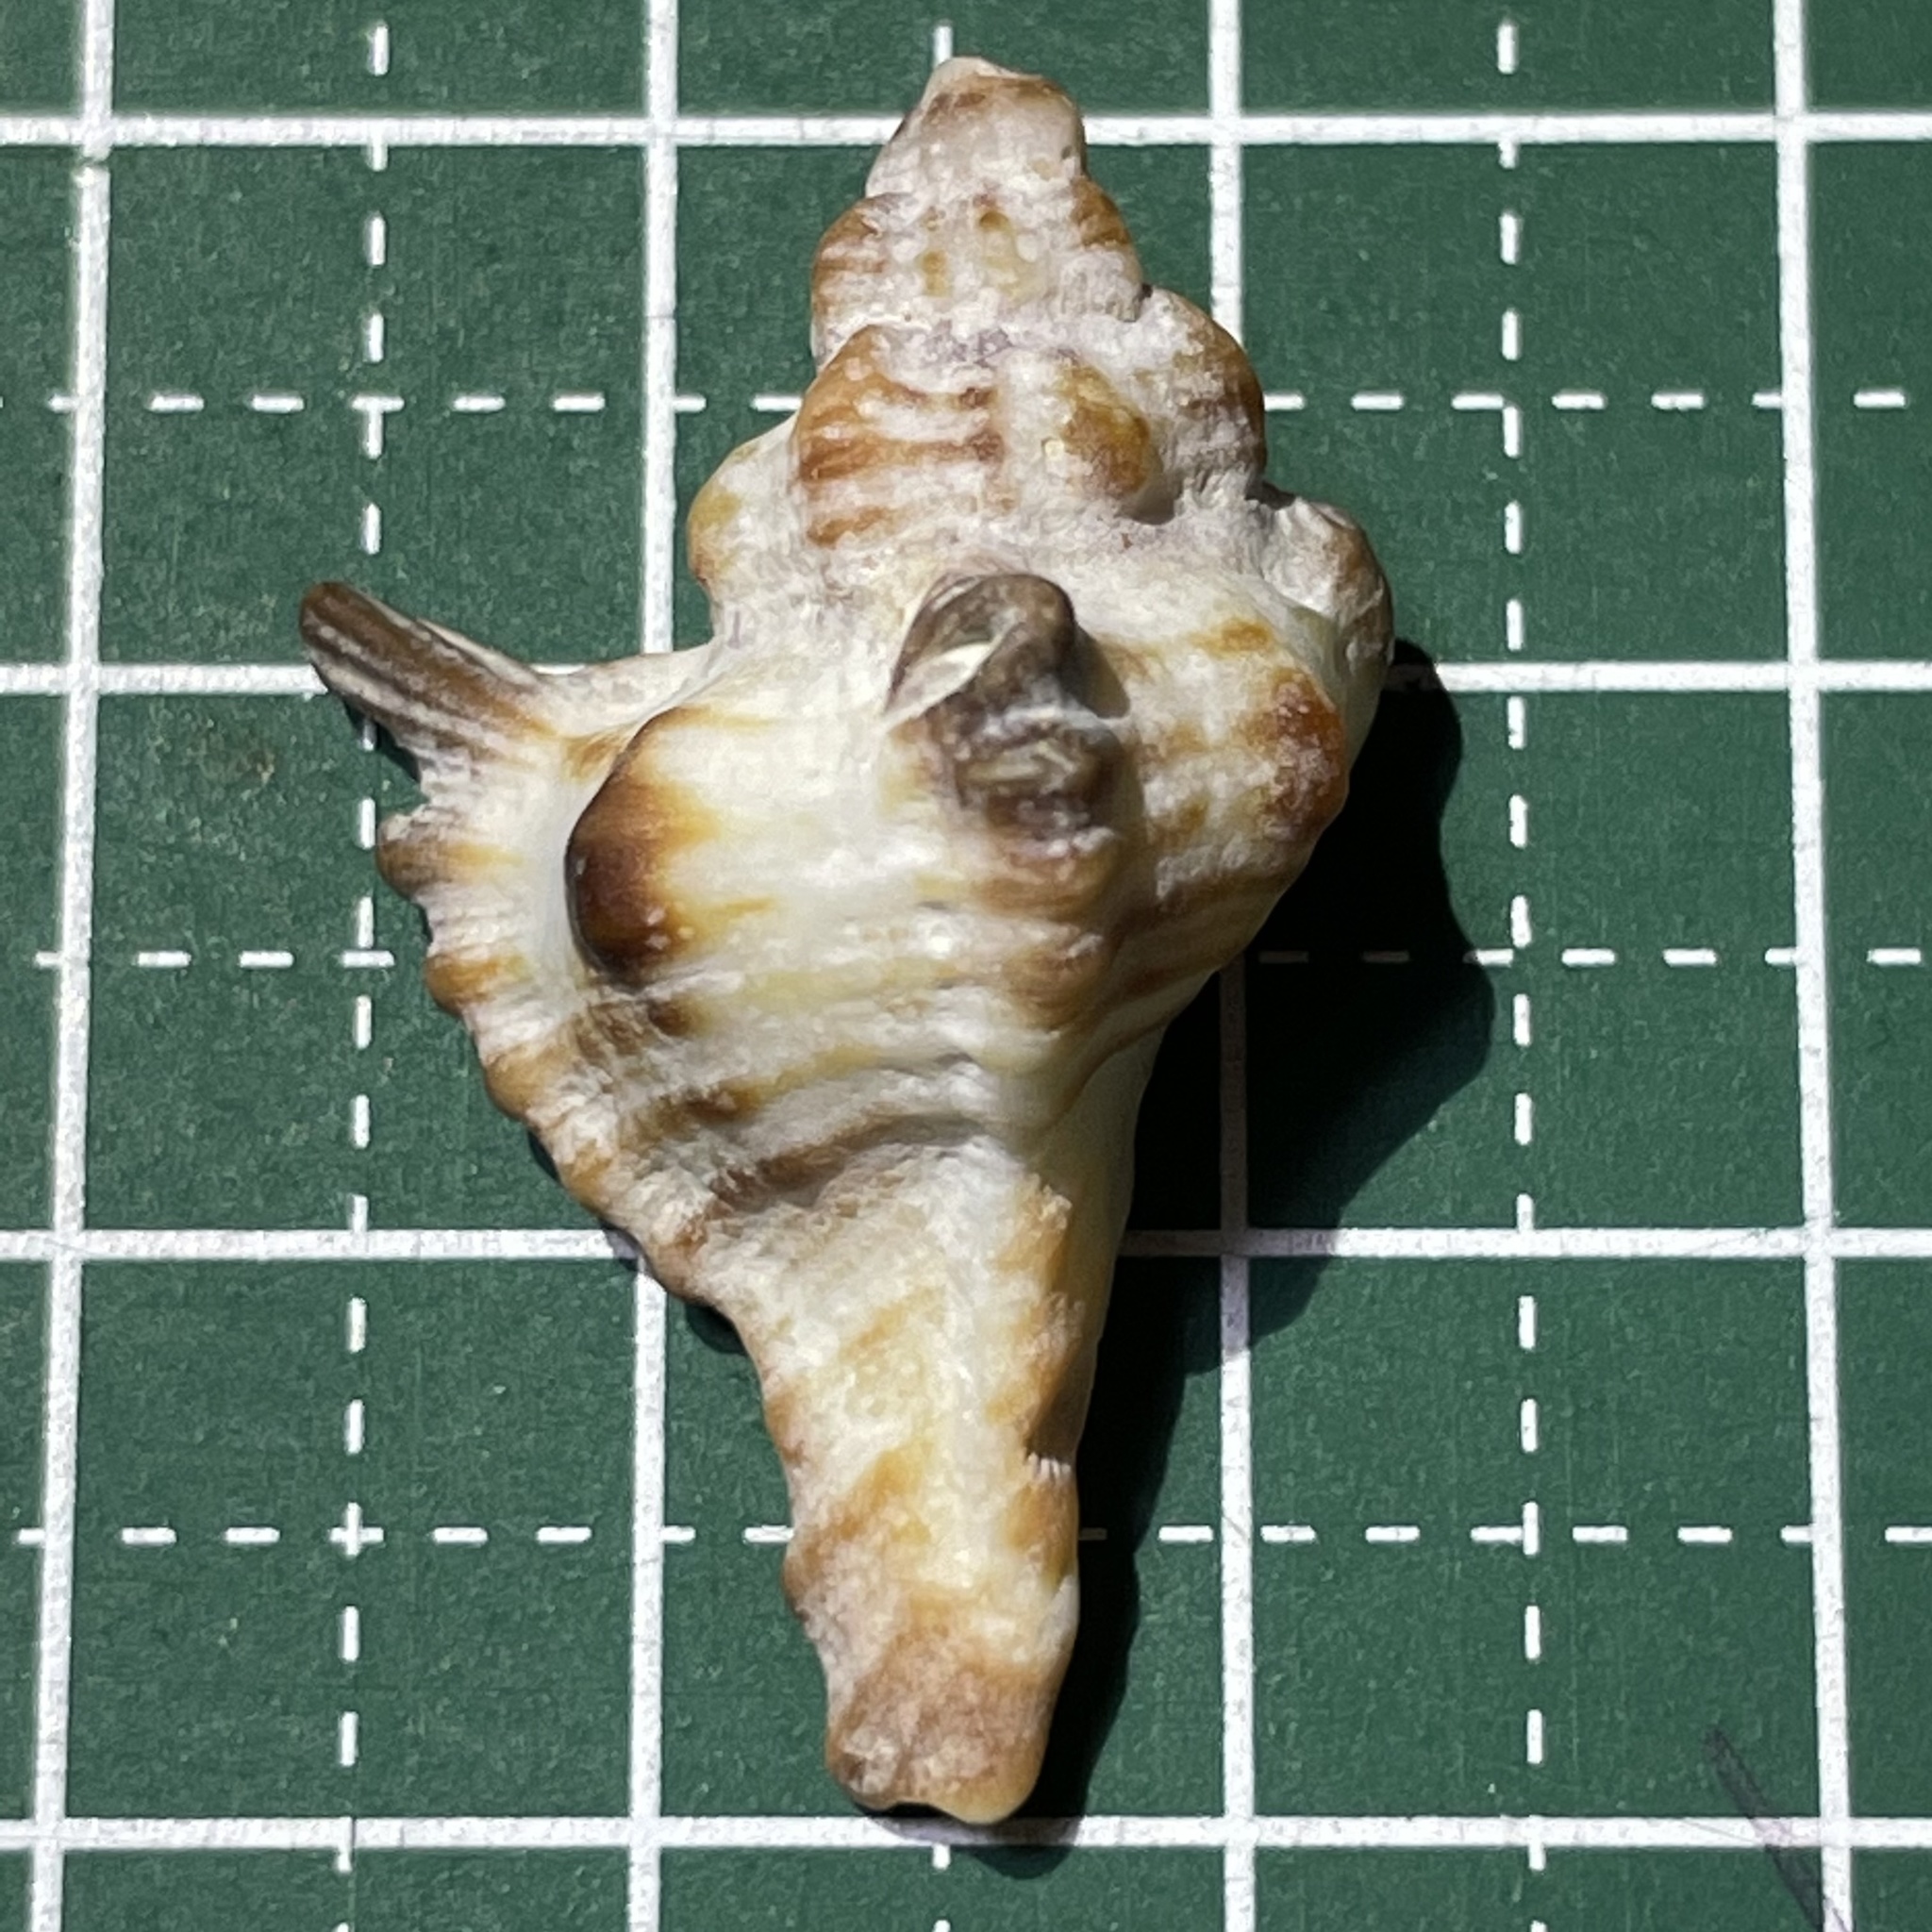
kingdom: Animalia
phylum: Mollusca
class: Gastropoda
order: Neogastropoda
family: Muricidae
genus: Chicoreus
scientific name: Chicoreus brunneus
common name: Adusta murex
